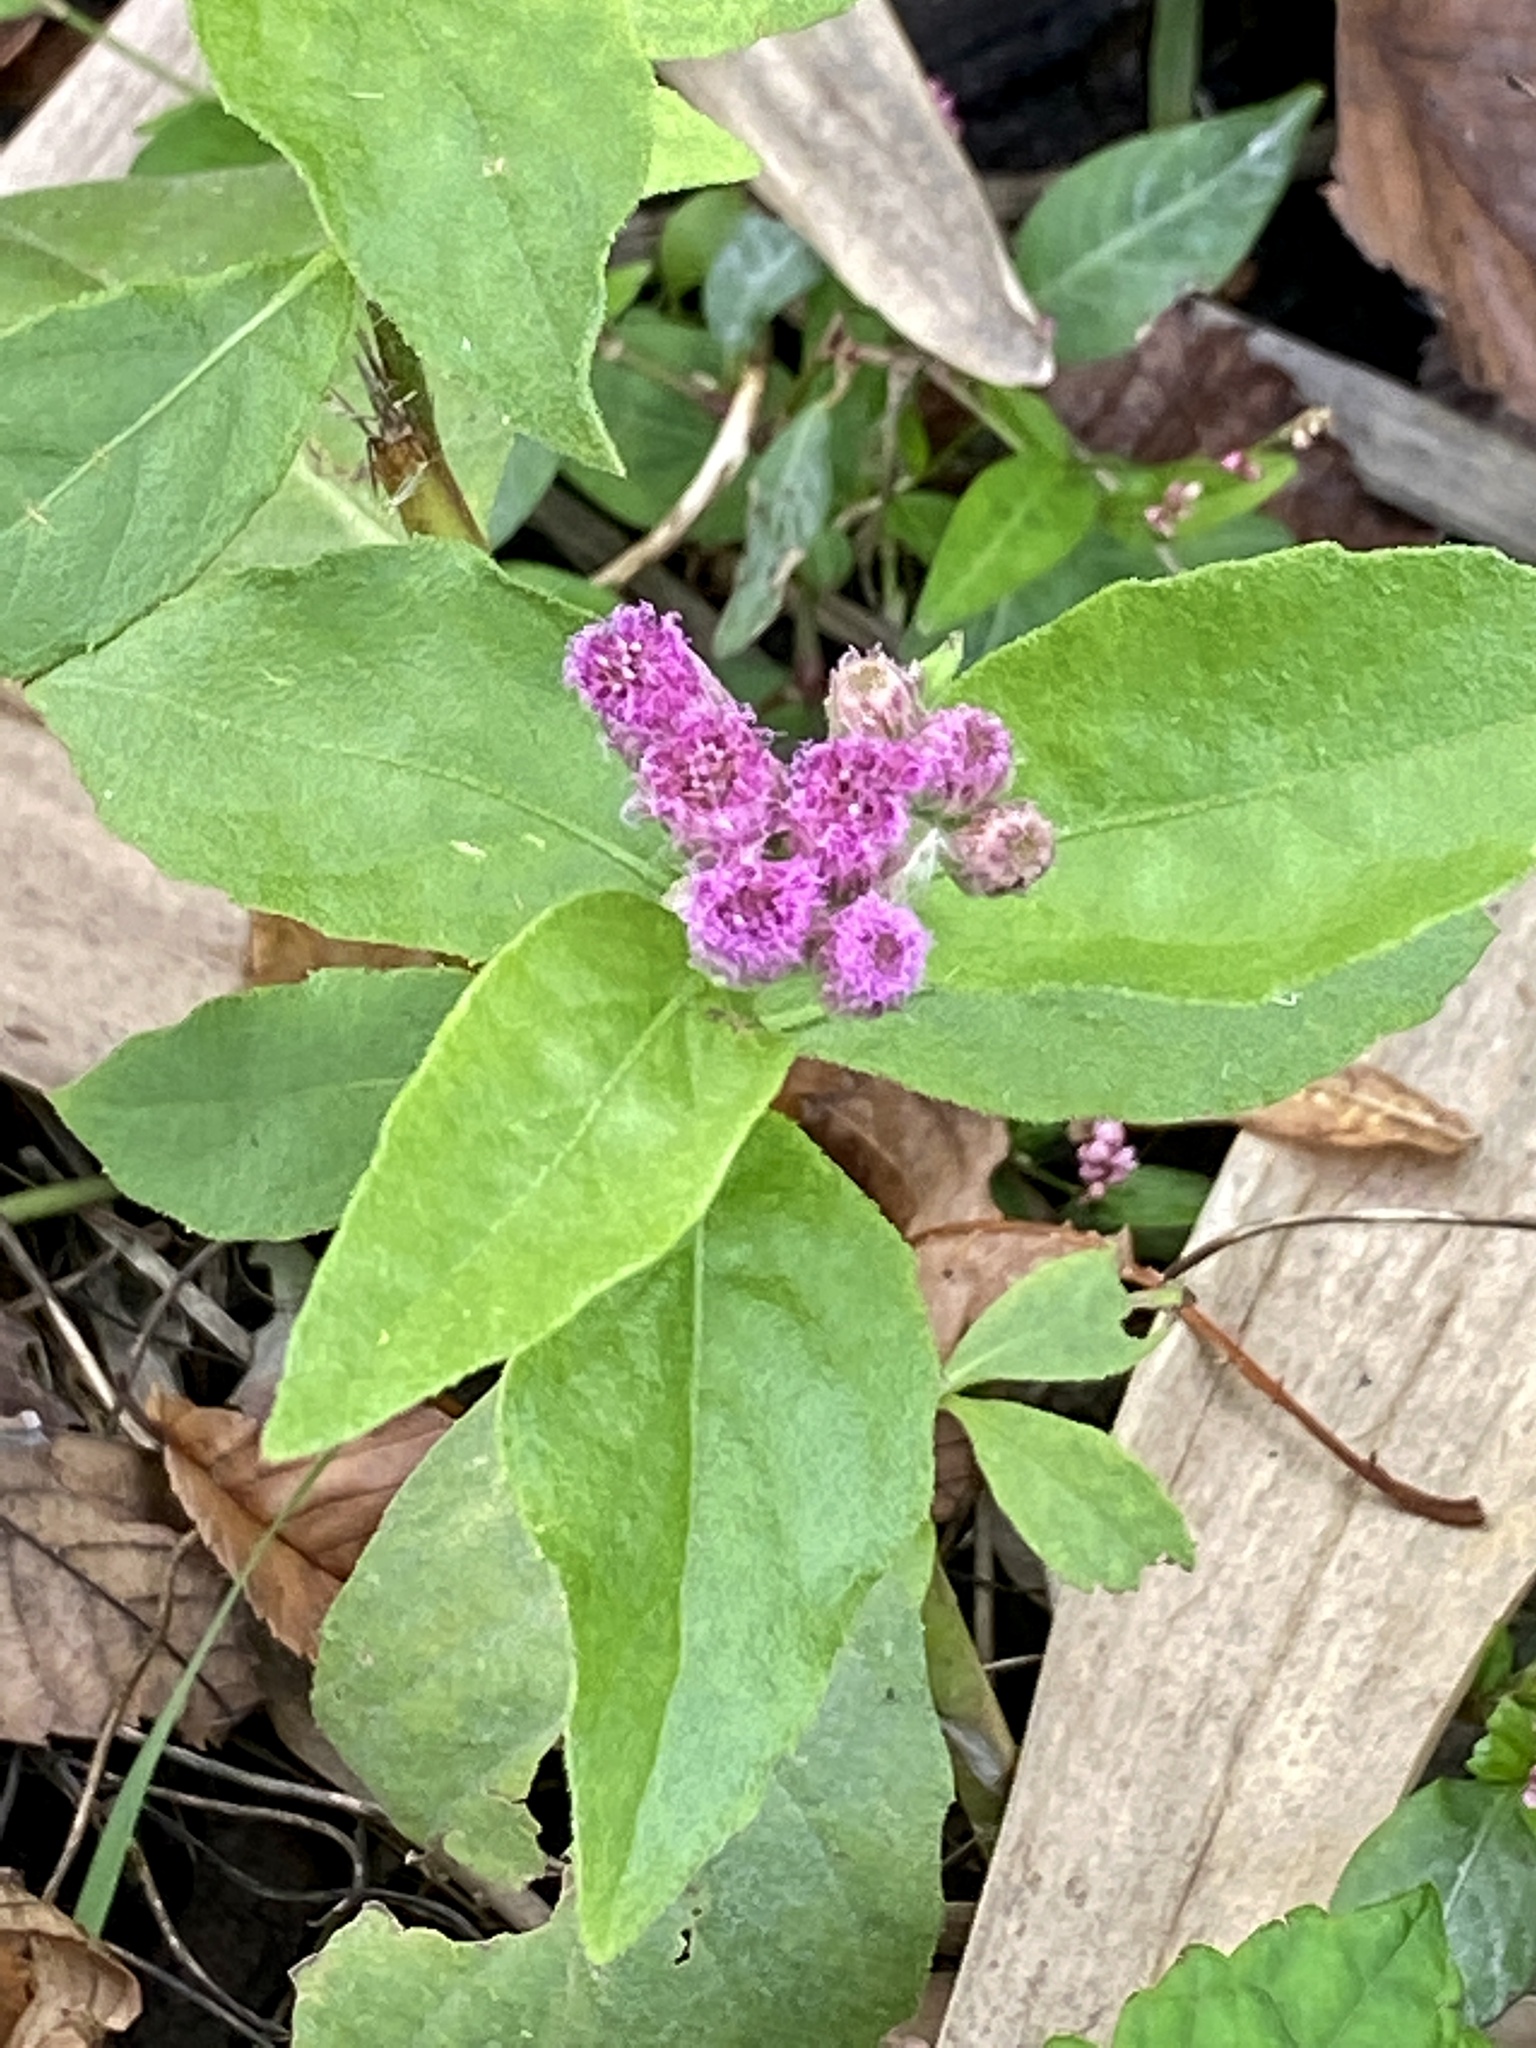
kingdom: Plantae
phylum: Tracheophyta
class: Magnoliopsida
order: Asterales
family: Asteraceae
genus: Pluchea
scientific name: Pluchea odorata
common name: Saltmarsh fleabane
